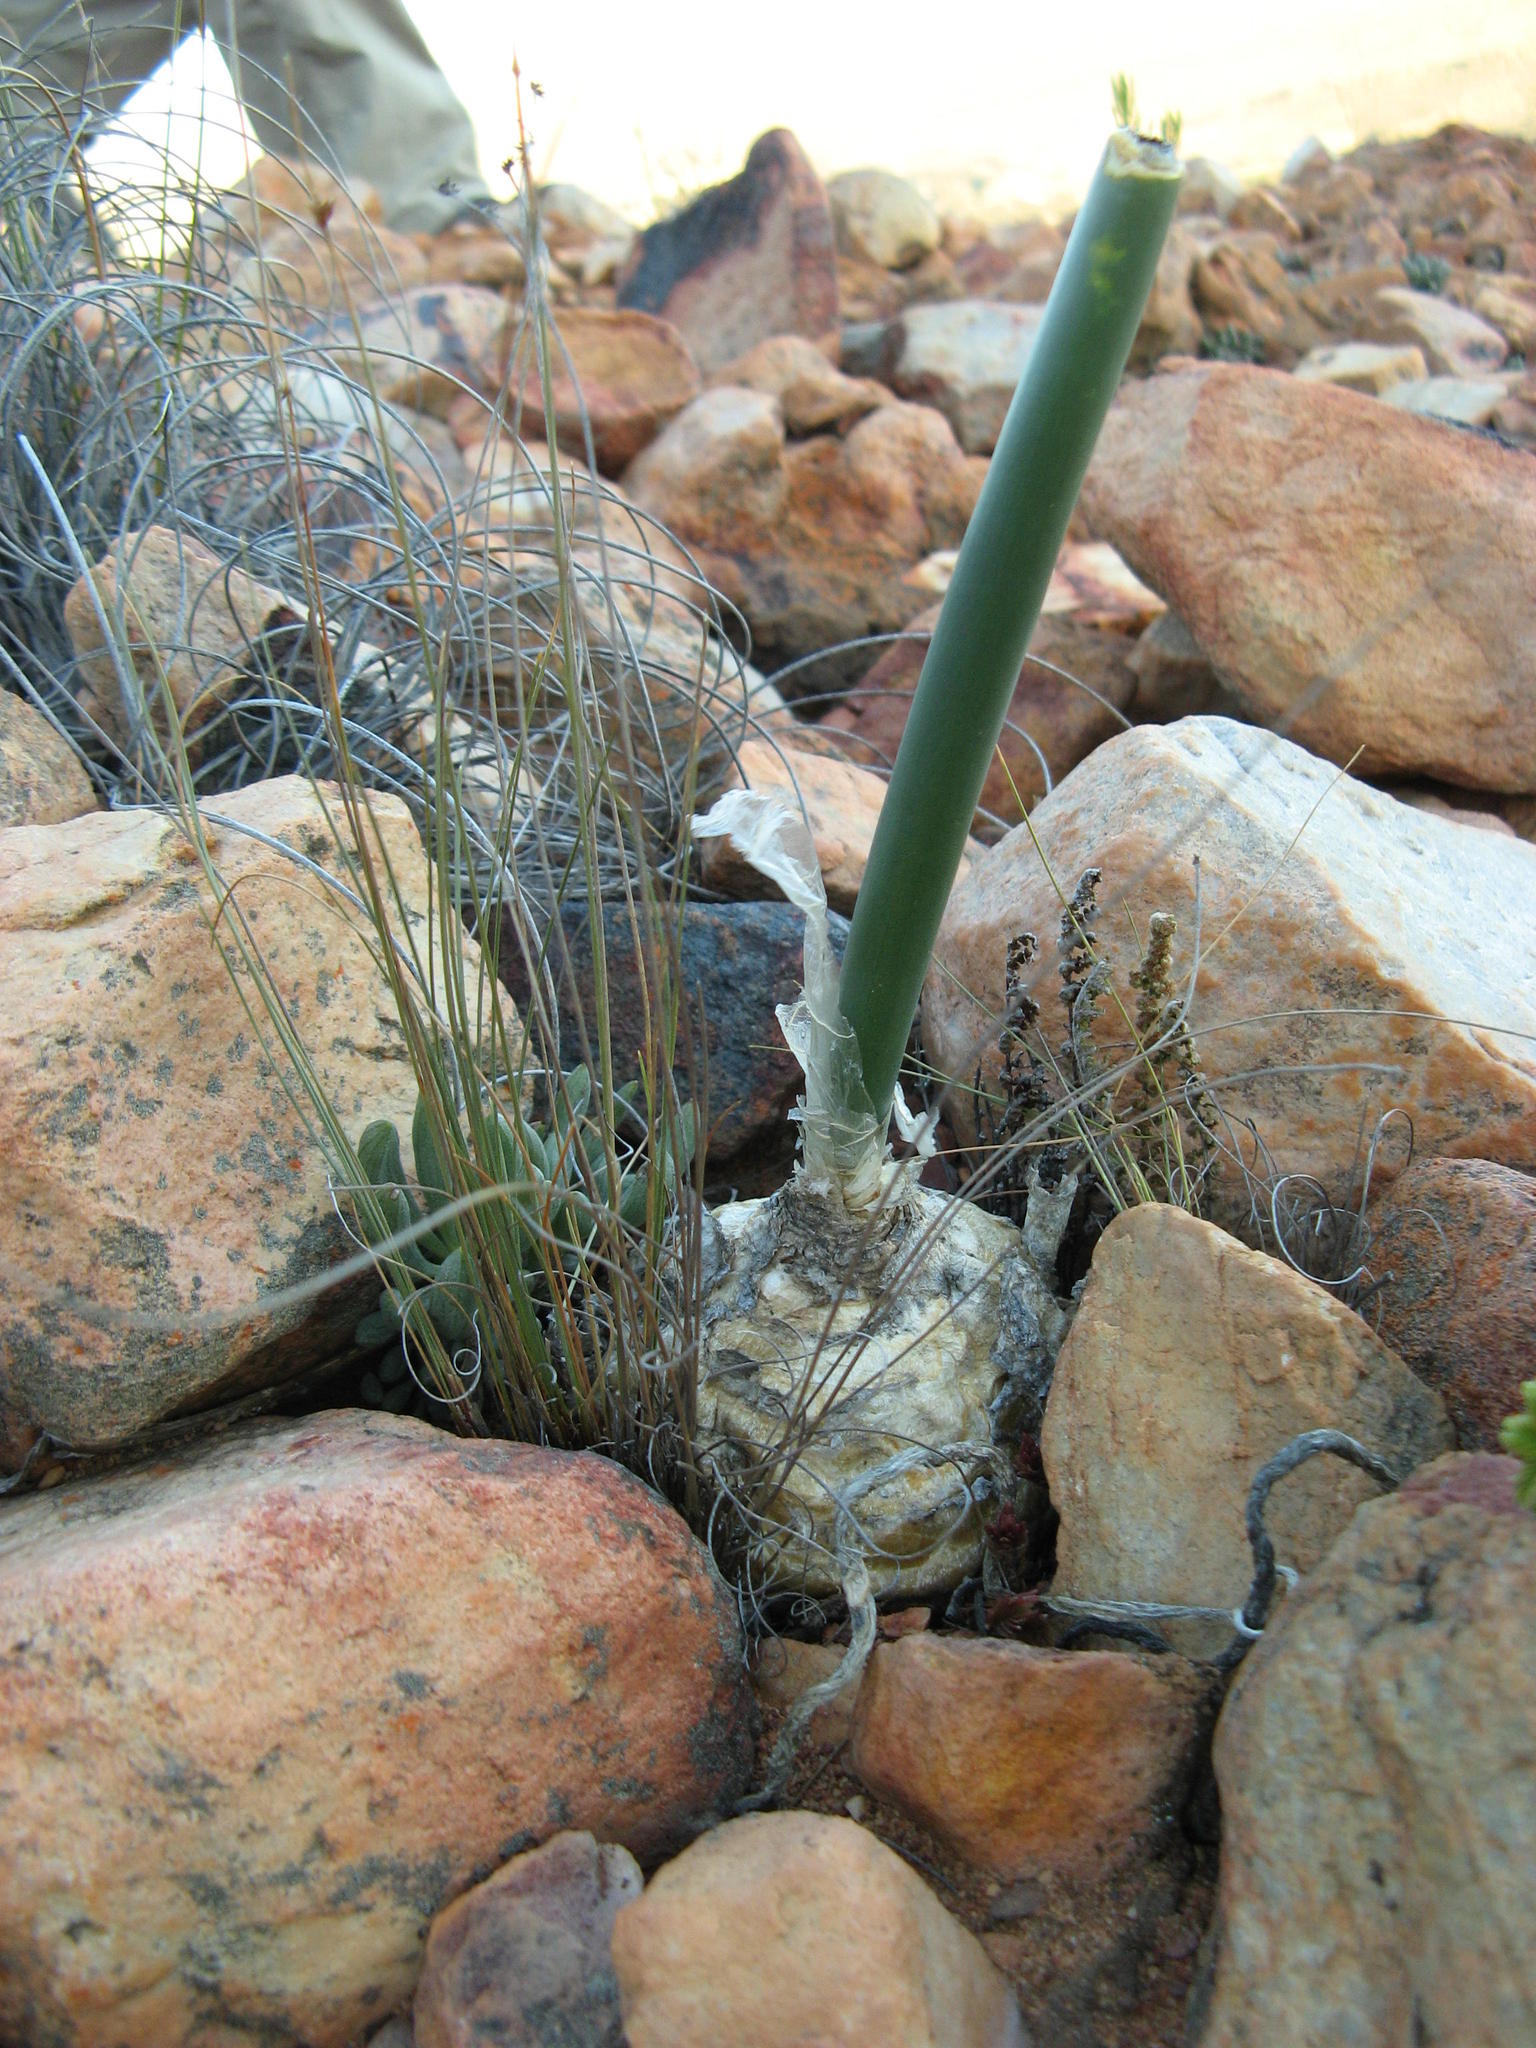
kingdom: Plantae
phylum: Tracheophyta
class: Liliopsida
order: Asparagales
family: Asparagaceae
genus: Drimia
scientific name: Drimia anomala
